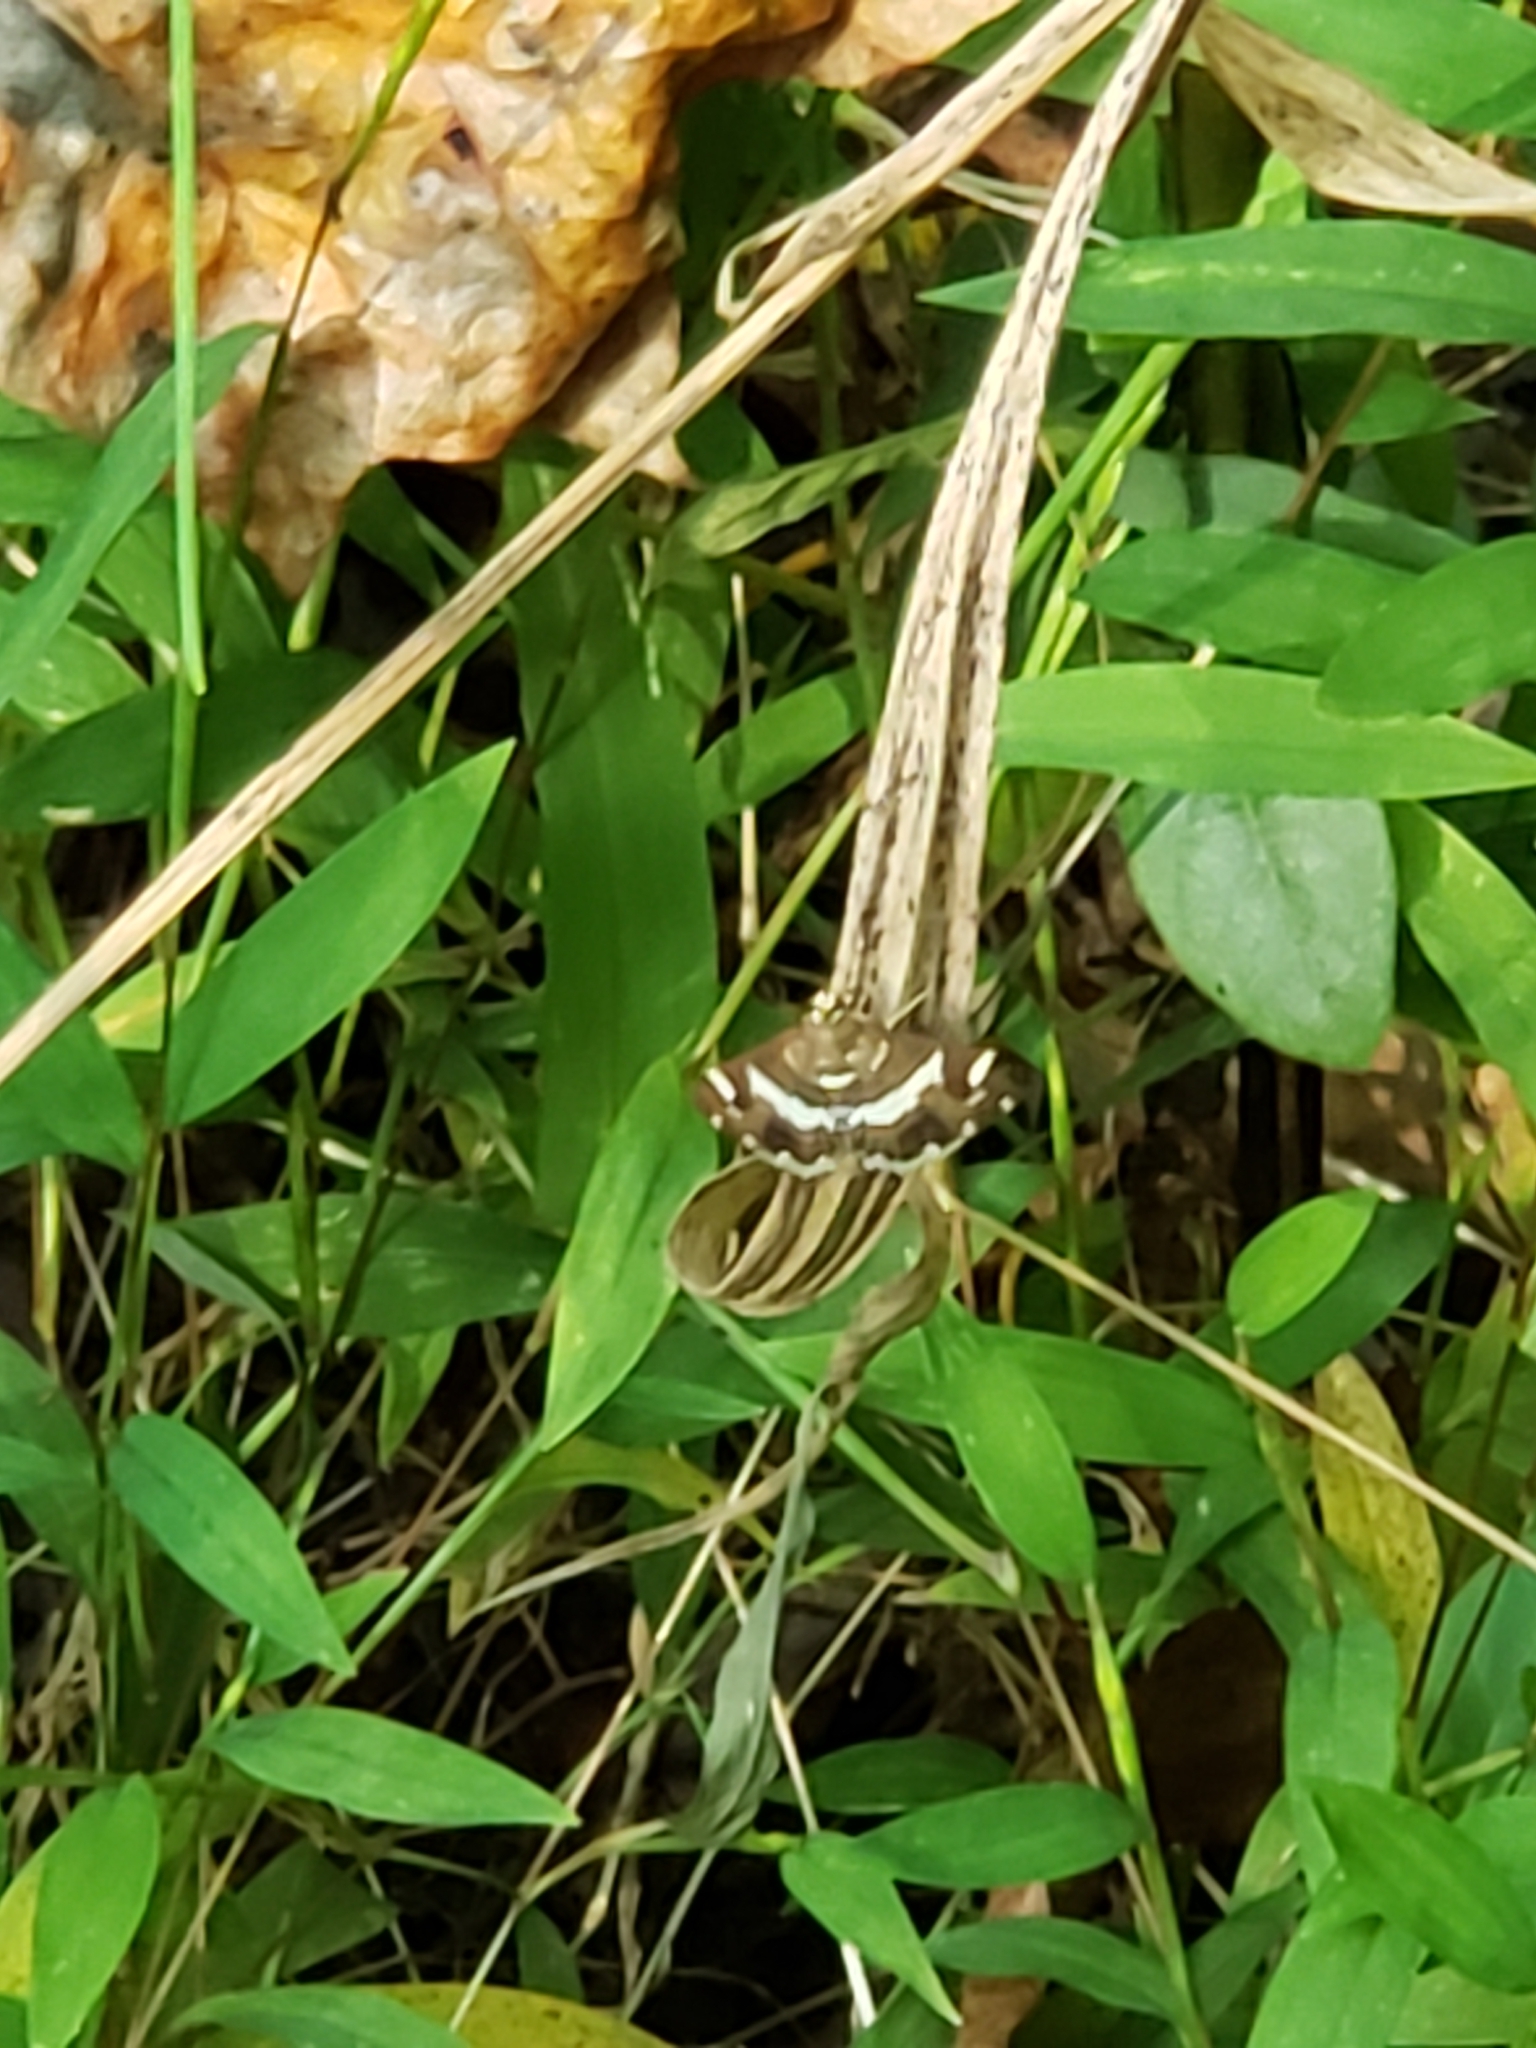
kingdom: Animalia
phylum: Arthropoda
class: Insecta
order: Lepidoptera
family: Crambidae
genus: Spoladea
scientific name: Spoladea recurvalis
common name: Beet webworm moth
